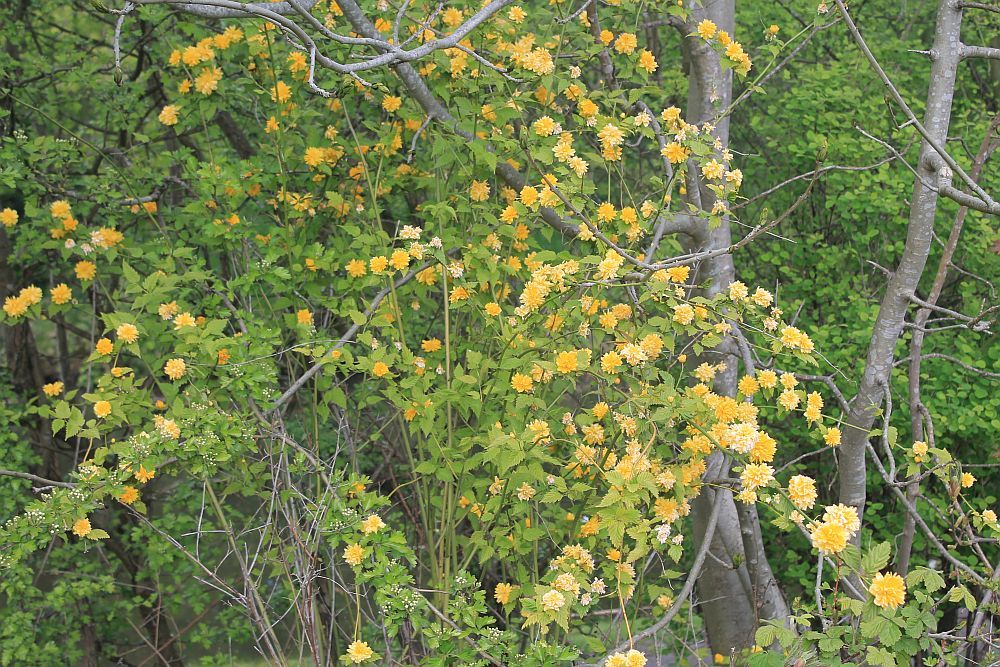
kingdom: Plantae
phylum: Tracheophyta
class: Magnoliopsida
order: Rosales
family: Rosaceae
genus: Kerria
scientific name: Kerria japonica
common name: Japanese kerria
